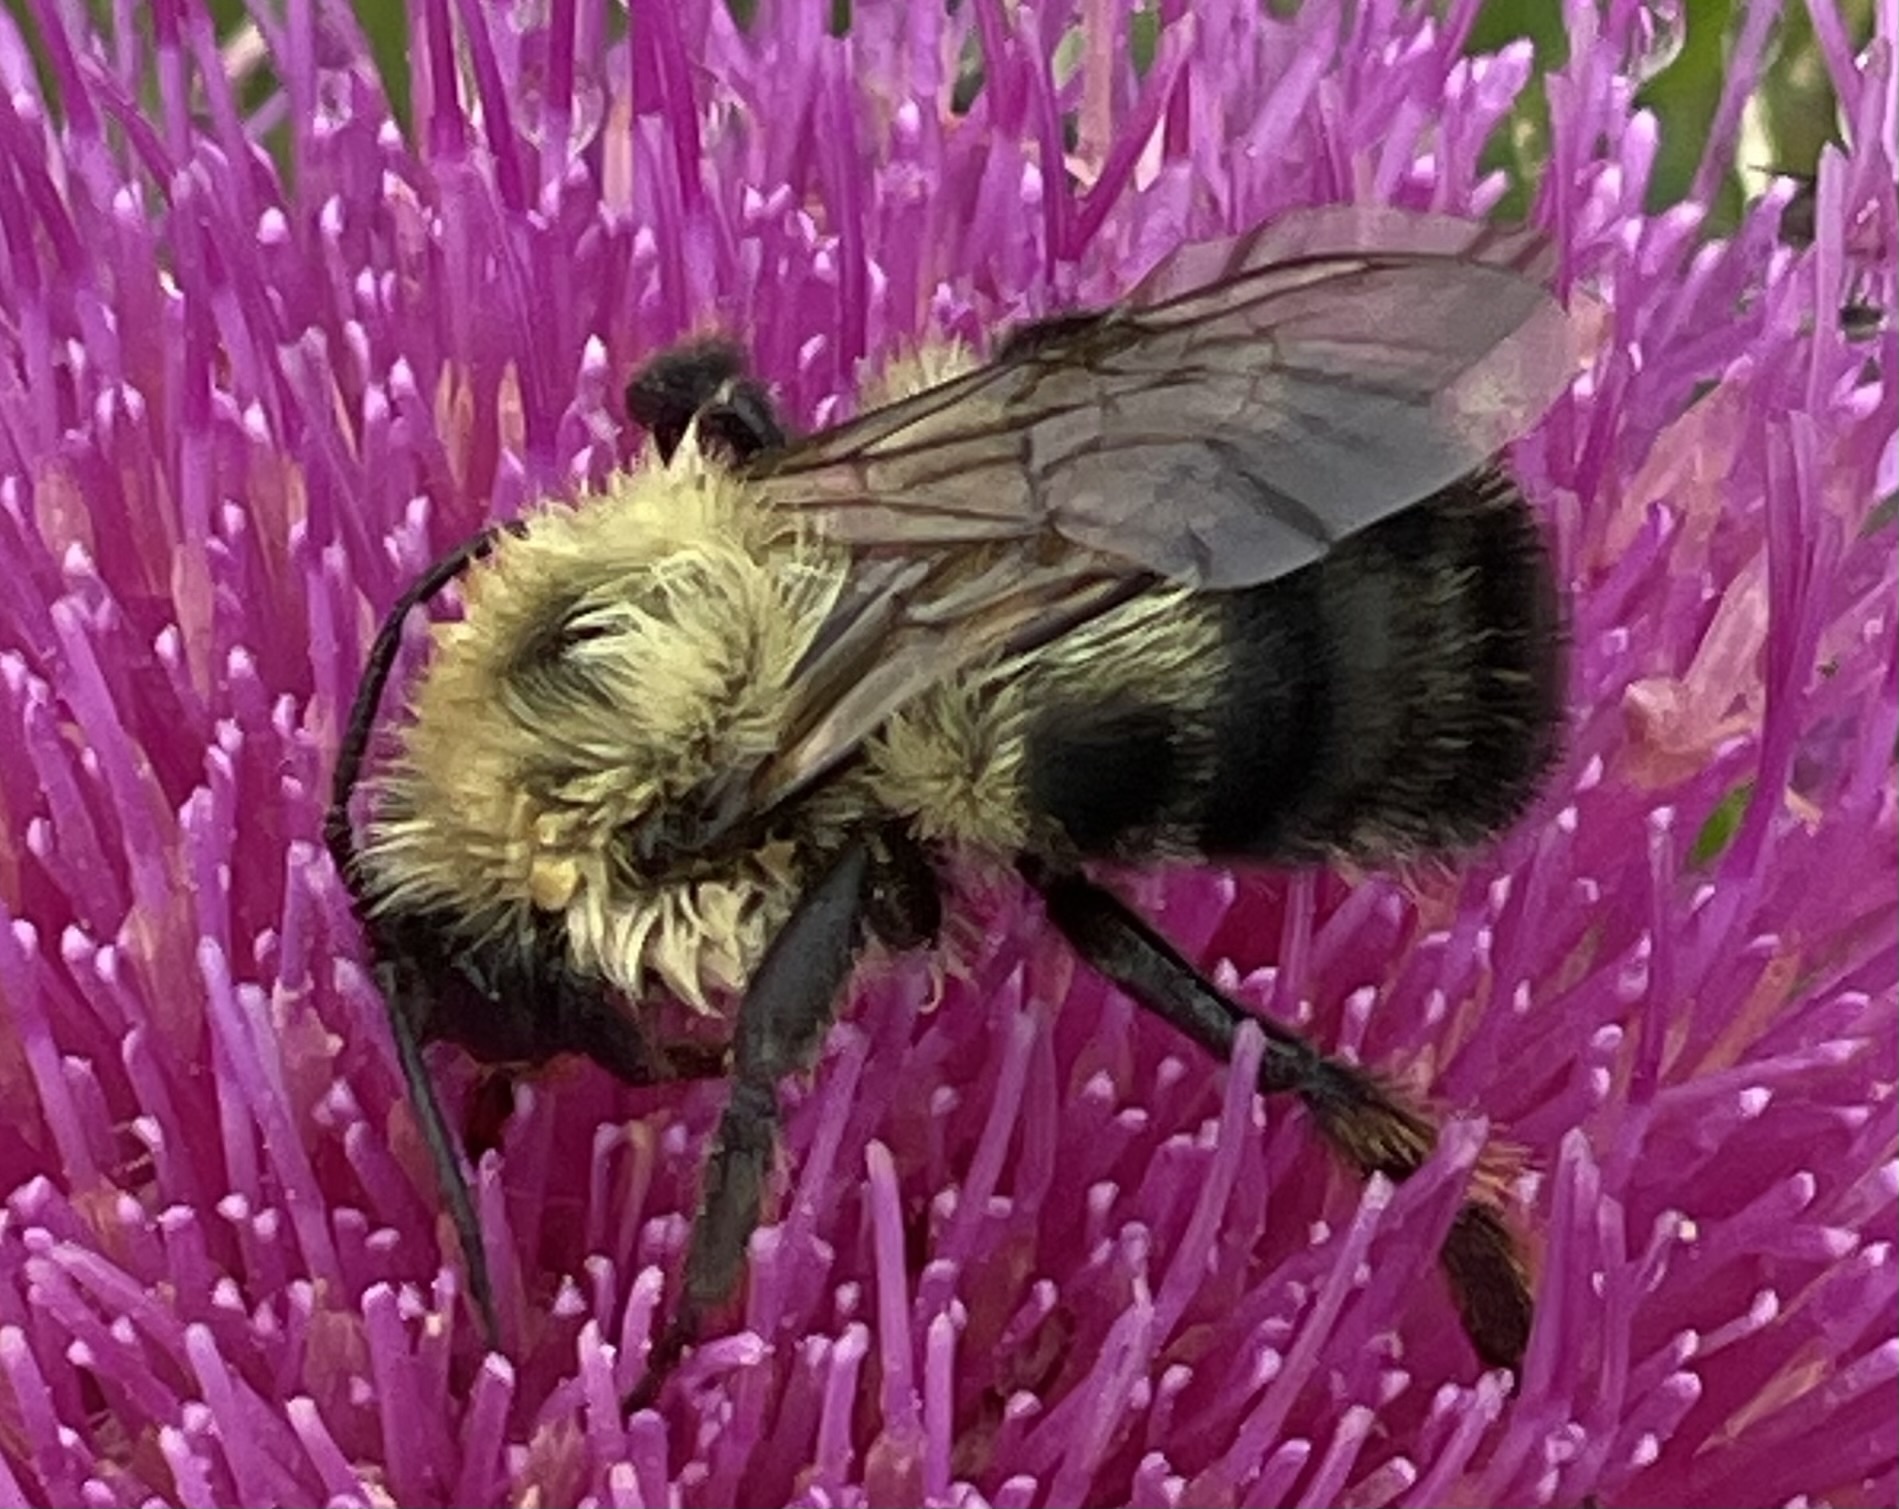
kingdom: Animalia
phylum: Arthropoda
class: Insecta
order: Hymenoptera
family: Apidae
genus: Bombus
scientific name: Bombus bimaculatus
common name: Two-spotted bumble bee
